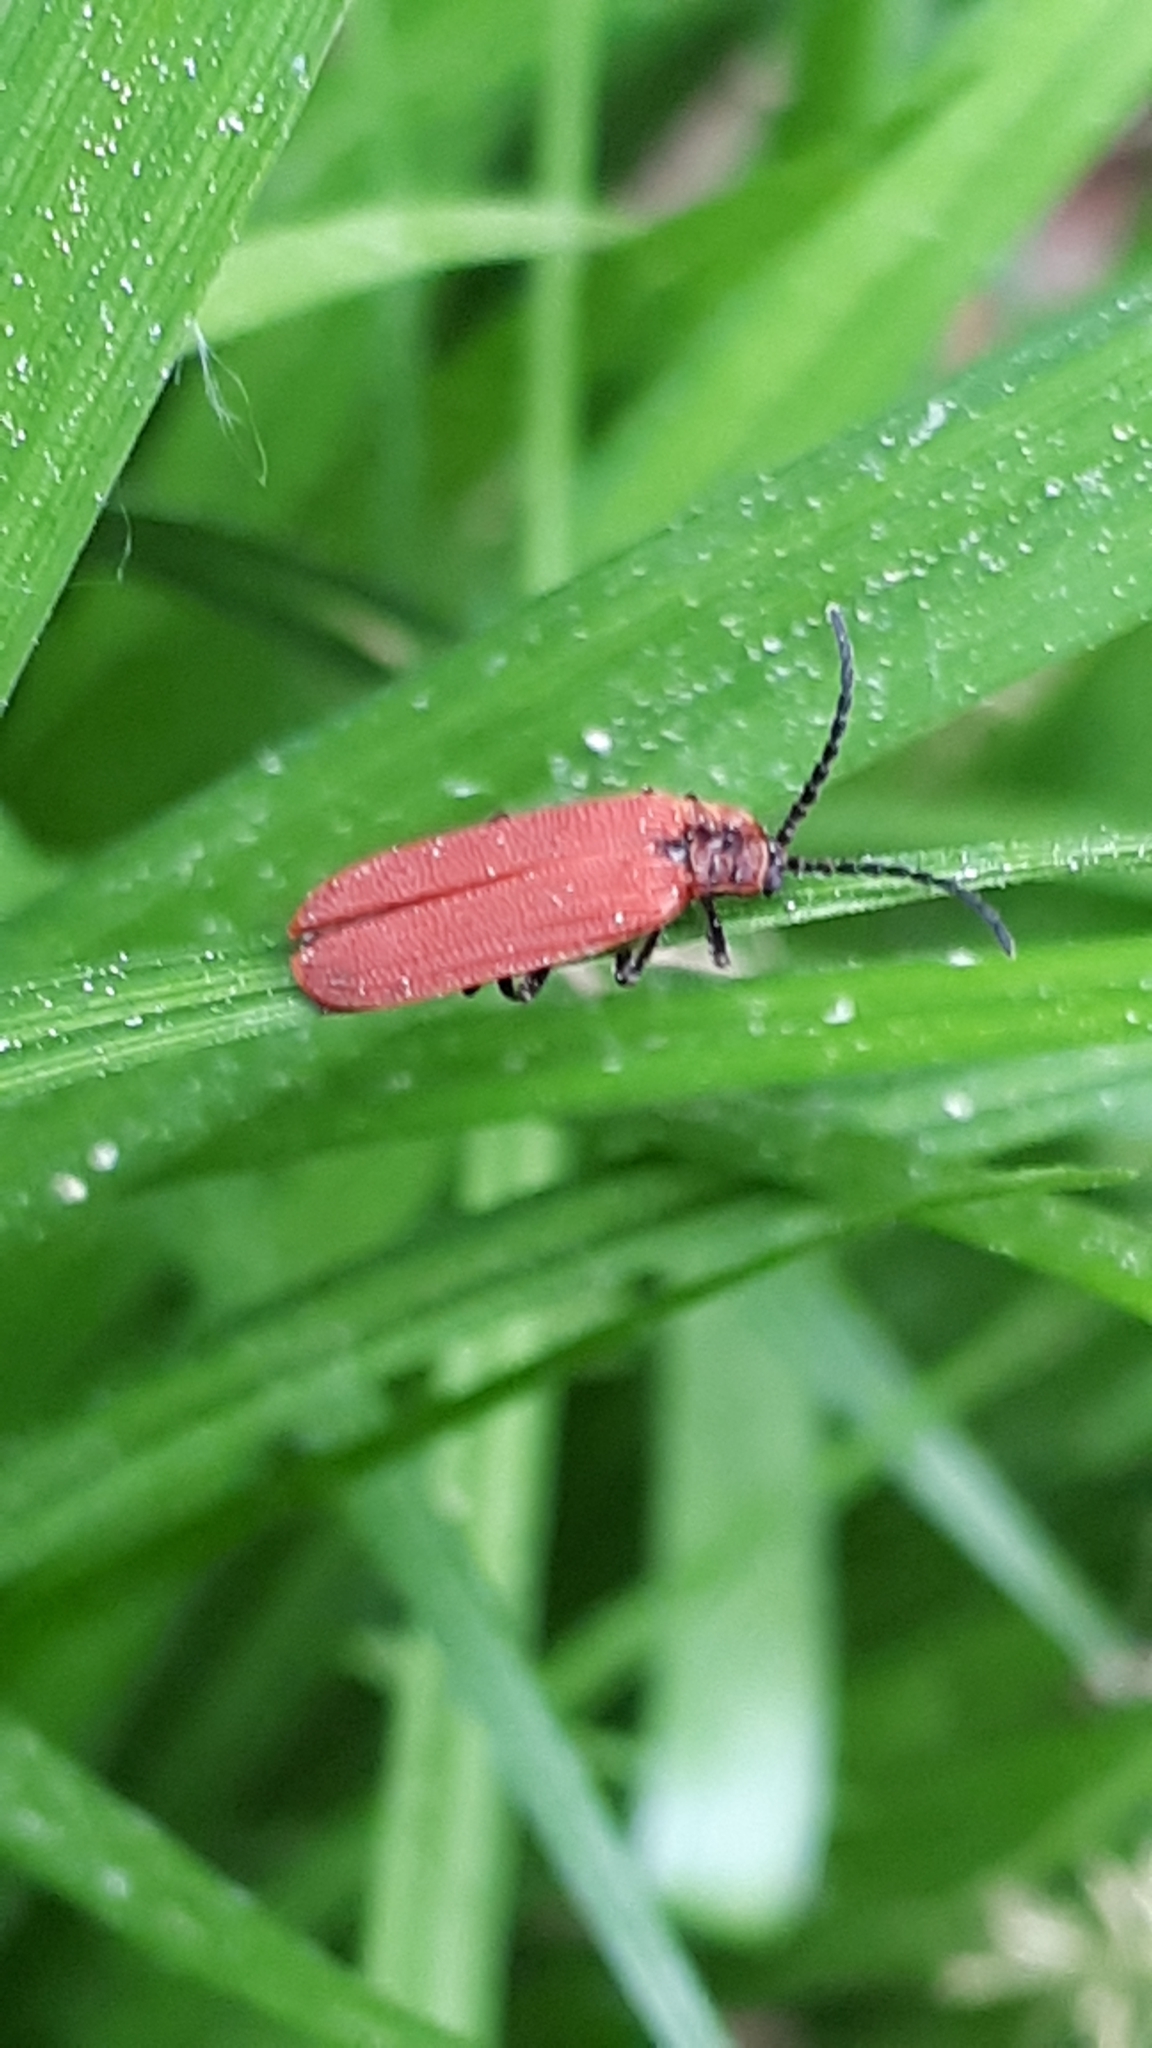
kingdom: Animalia
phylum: Arthropoda
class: Insecta
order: Coleoptera
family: Lycidae
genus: Dictyoptera
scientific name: Dictyoptera aurora
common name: Golden net-winged beetle
